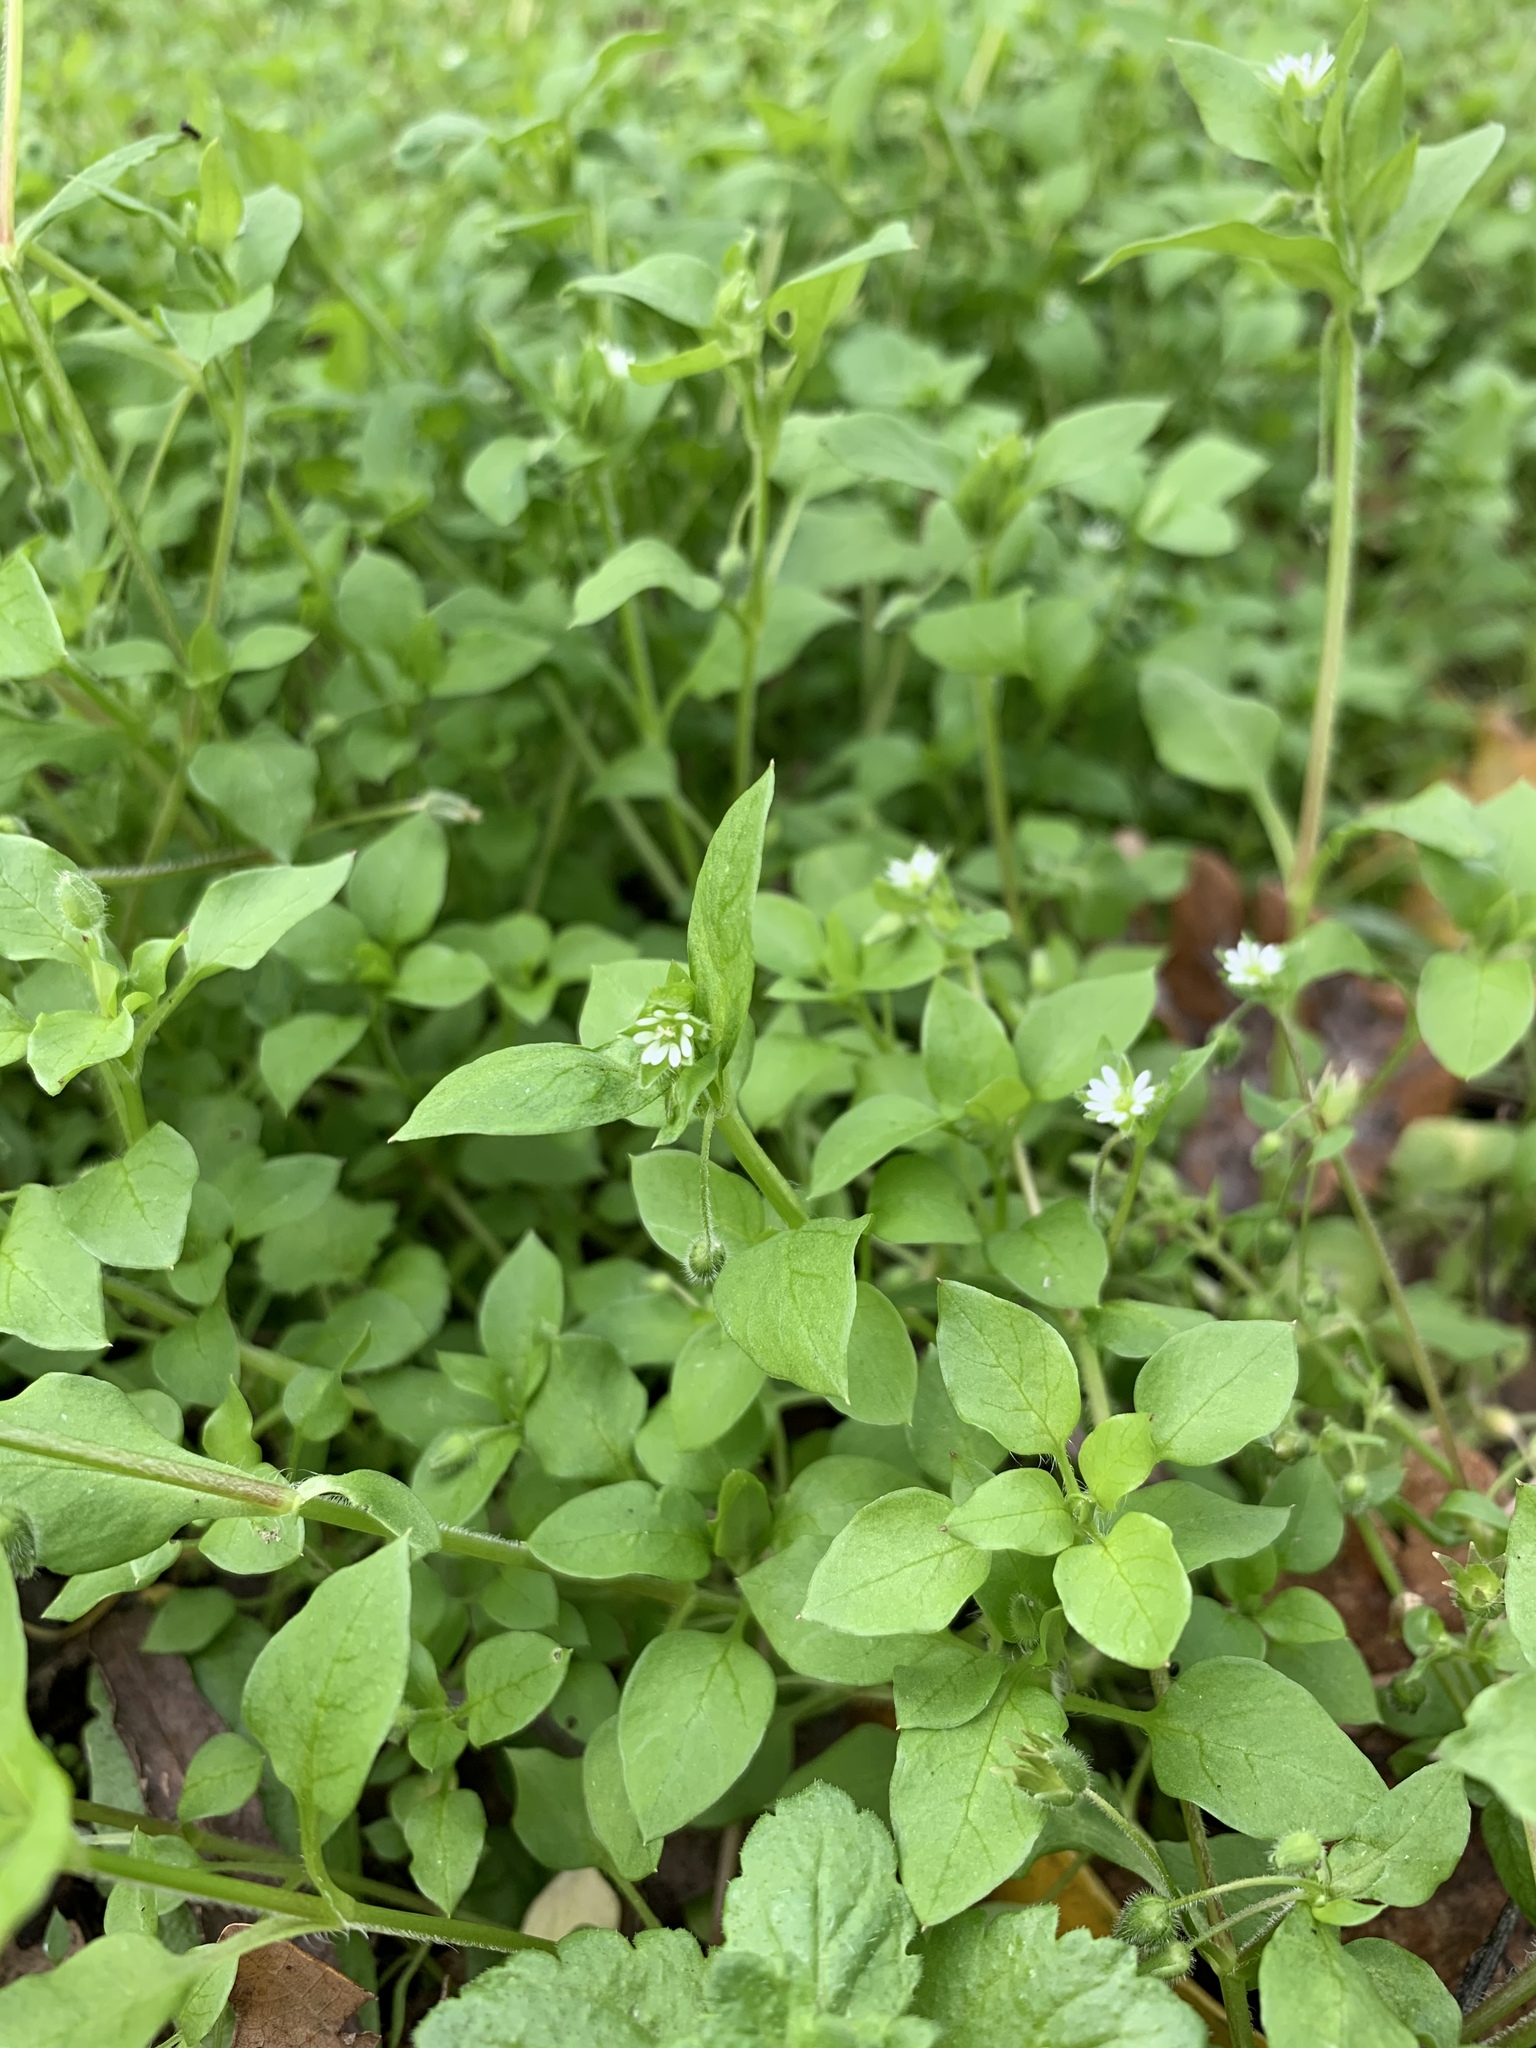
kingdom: Plantae
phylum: Tracheophyta
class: Magnoliopsida
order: Caryophyllales
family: Caryophyllaceae
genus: Stellaria
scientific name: Stellaria media
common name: Common chickweed
